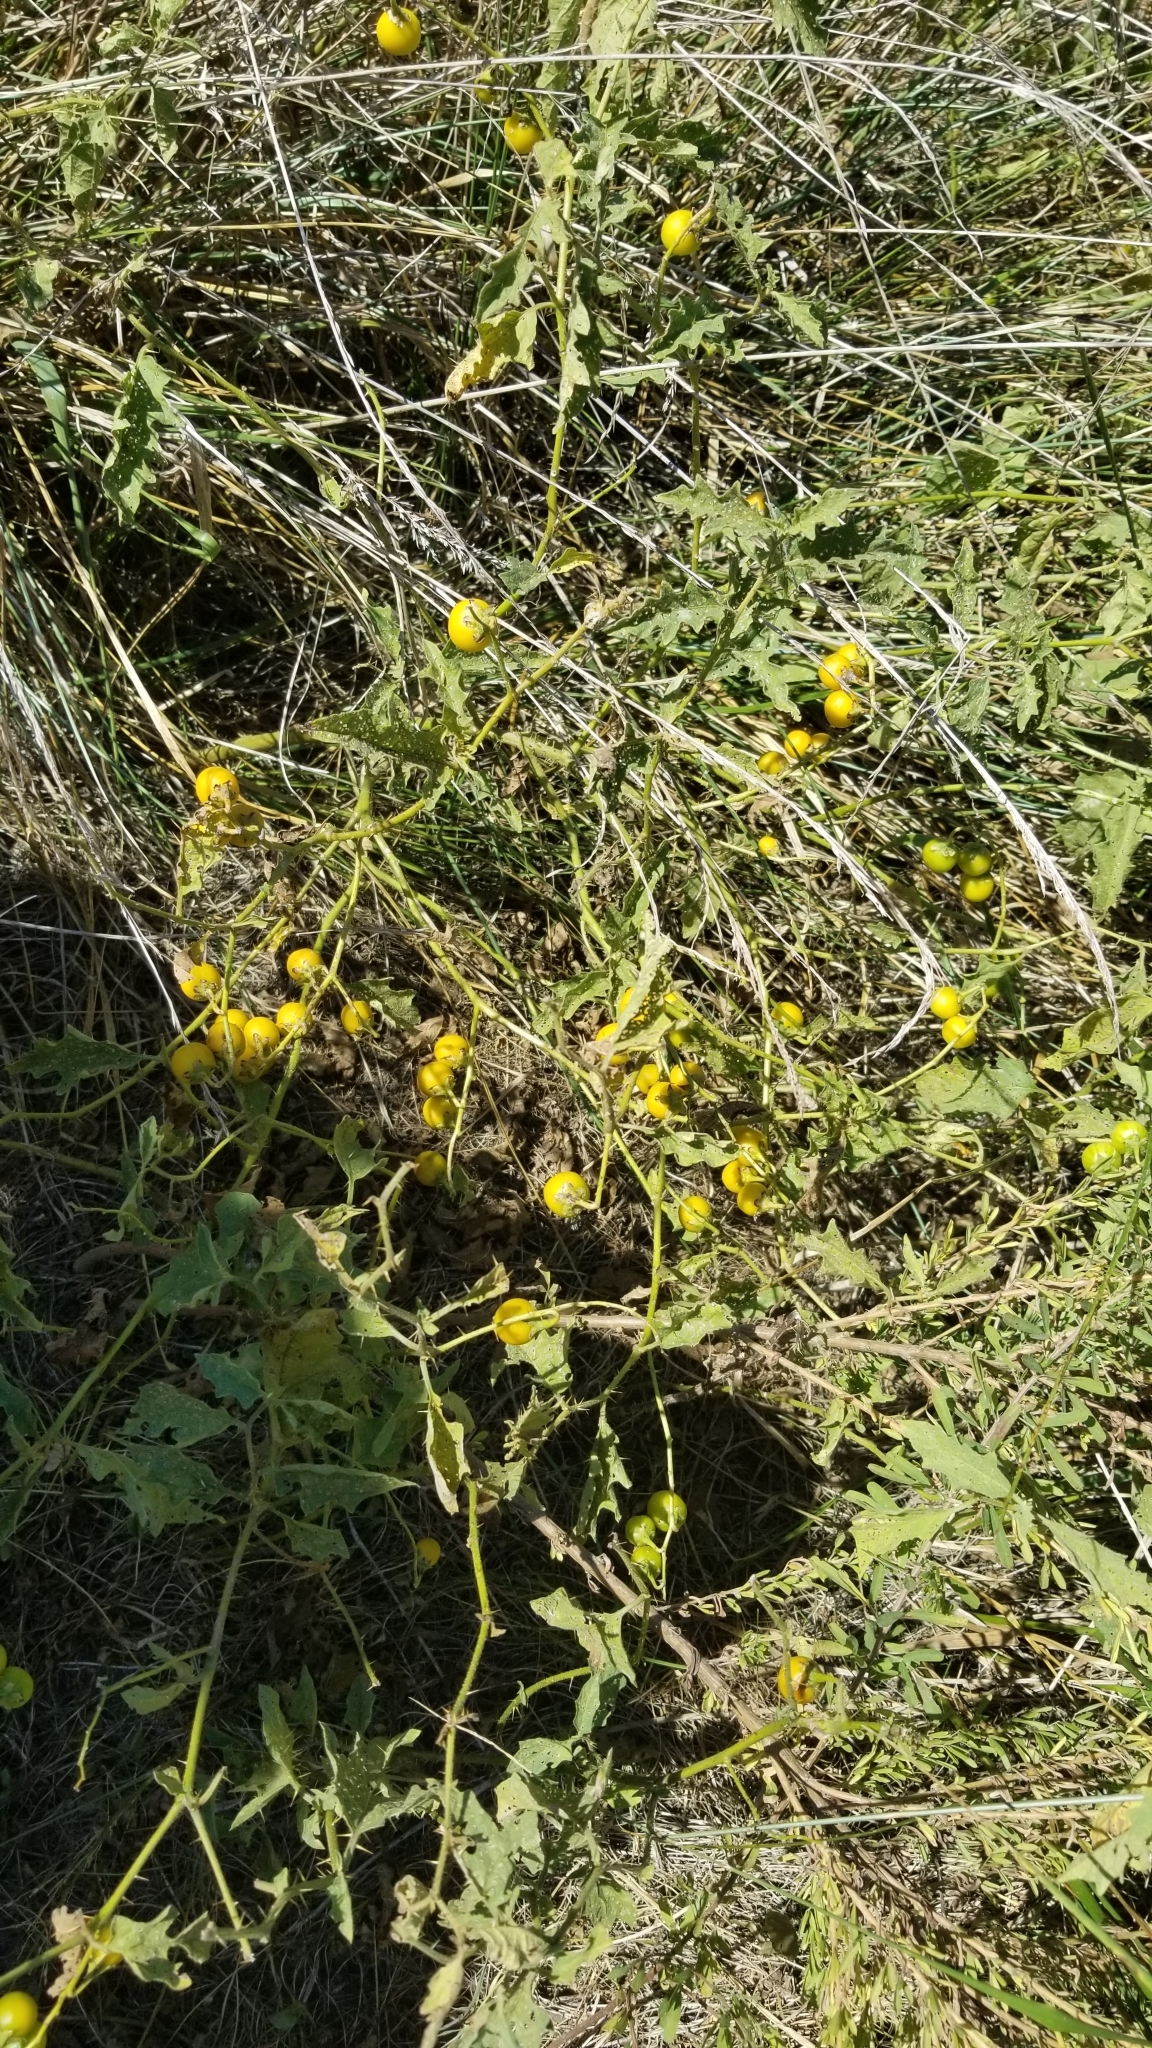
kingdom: Plantae
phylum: Tracheophyta
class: Magnoliopsida
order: Solanales
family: Solanaceae
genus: Solanum
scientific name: Solanum carolinense
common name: Horse-nettle
